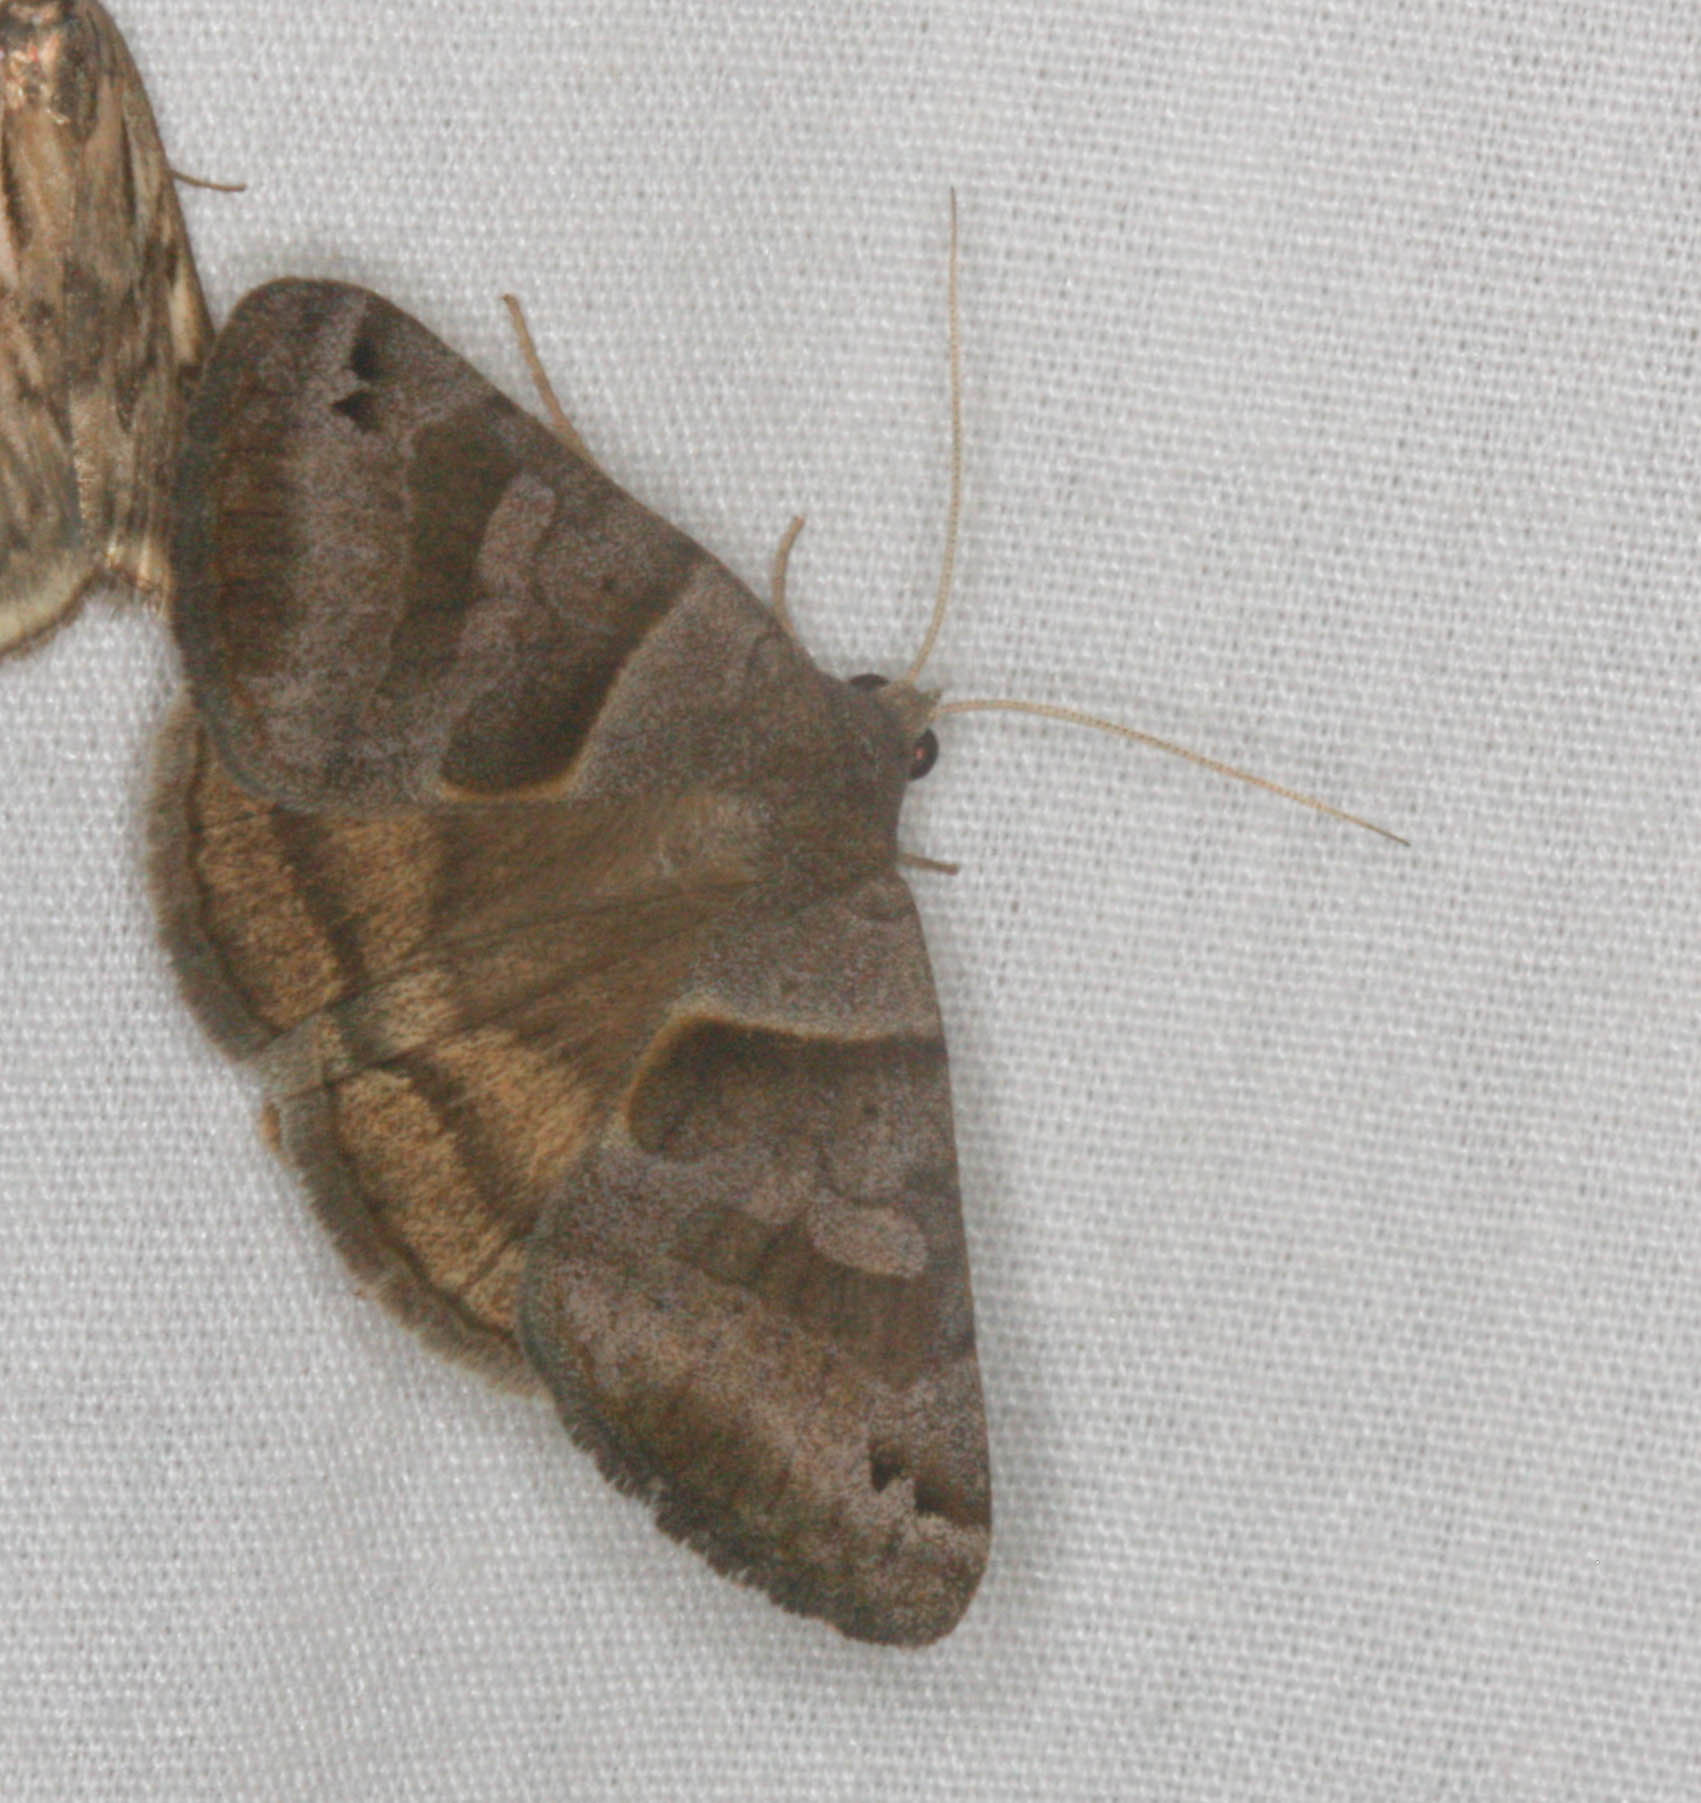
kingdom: Animalia
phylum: Arthropoda
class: Insecta
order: Lepidoptera
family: Erebidae
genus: Caenurgina
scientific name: Caenurgina erechtea
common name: Forage looper moth
